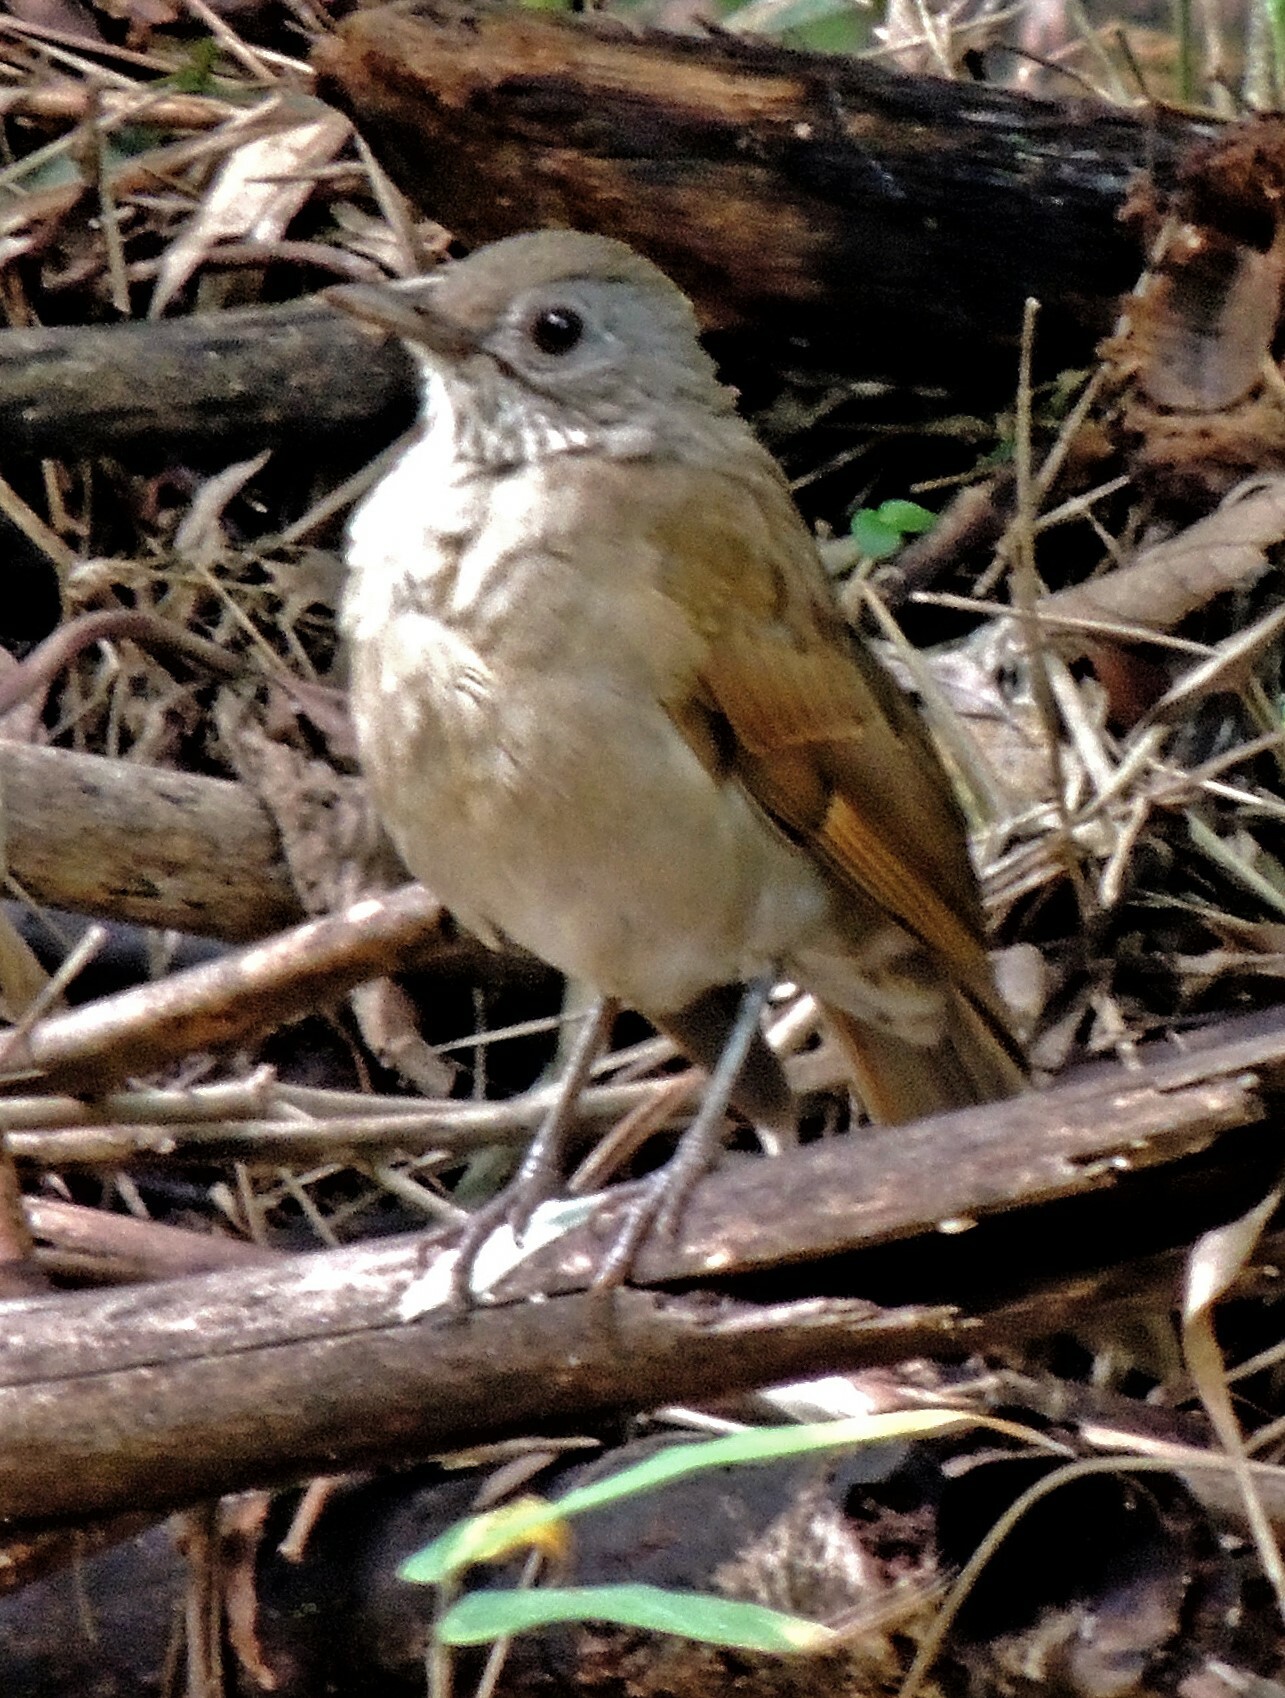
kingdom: Animalia
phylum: Chordata
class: Aves
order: Passeriformes
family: Turdidae
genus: Turdus
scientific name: Turdus leucomelas
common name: Pale-breasted thrush
